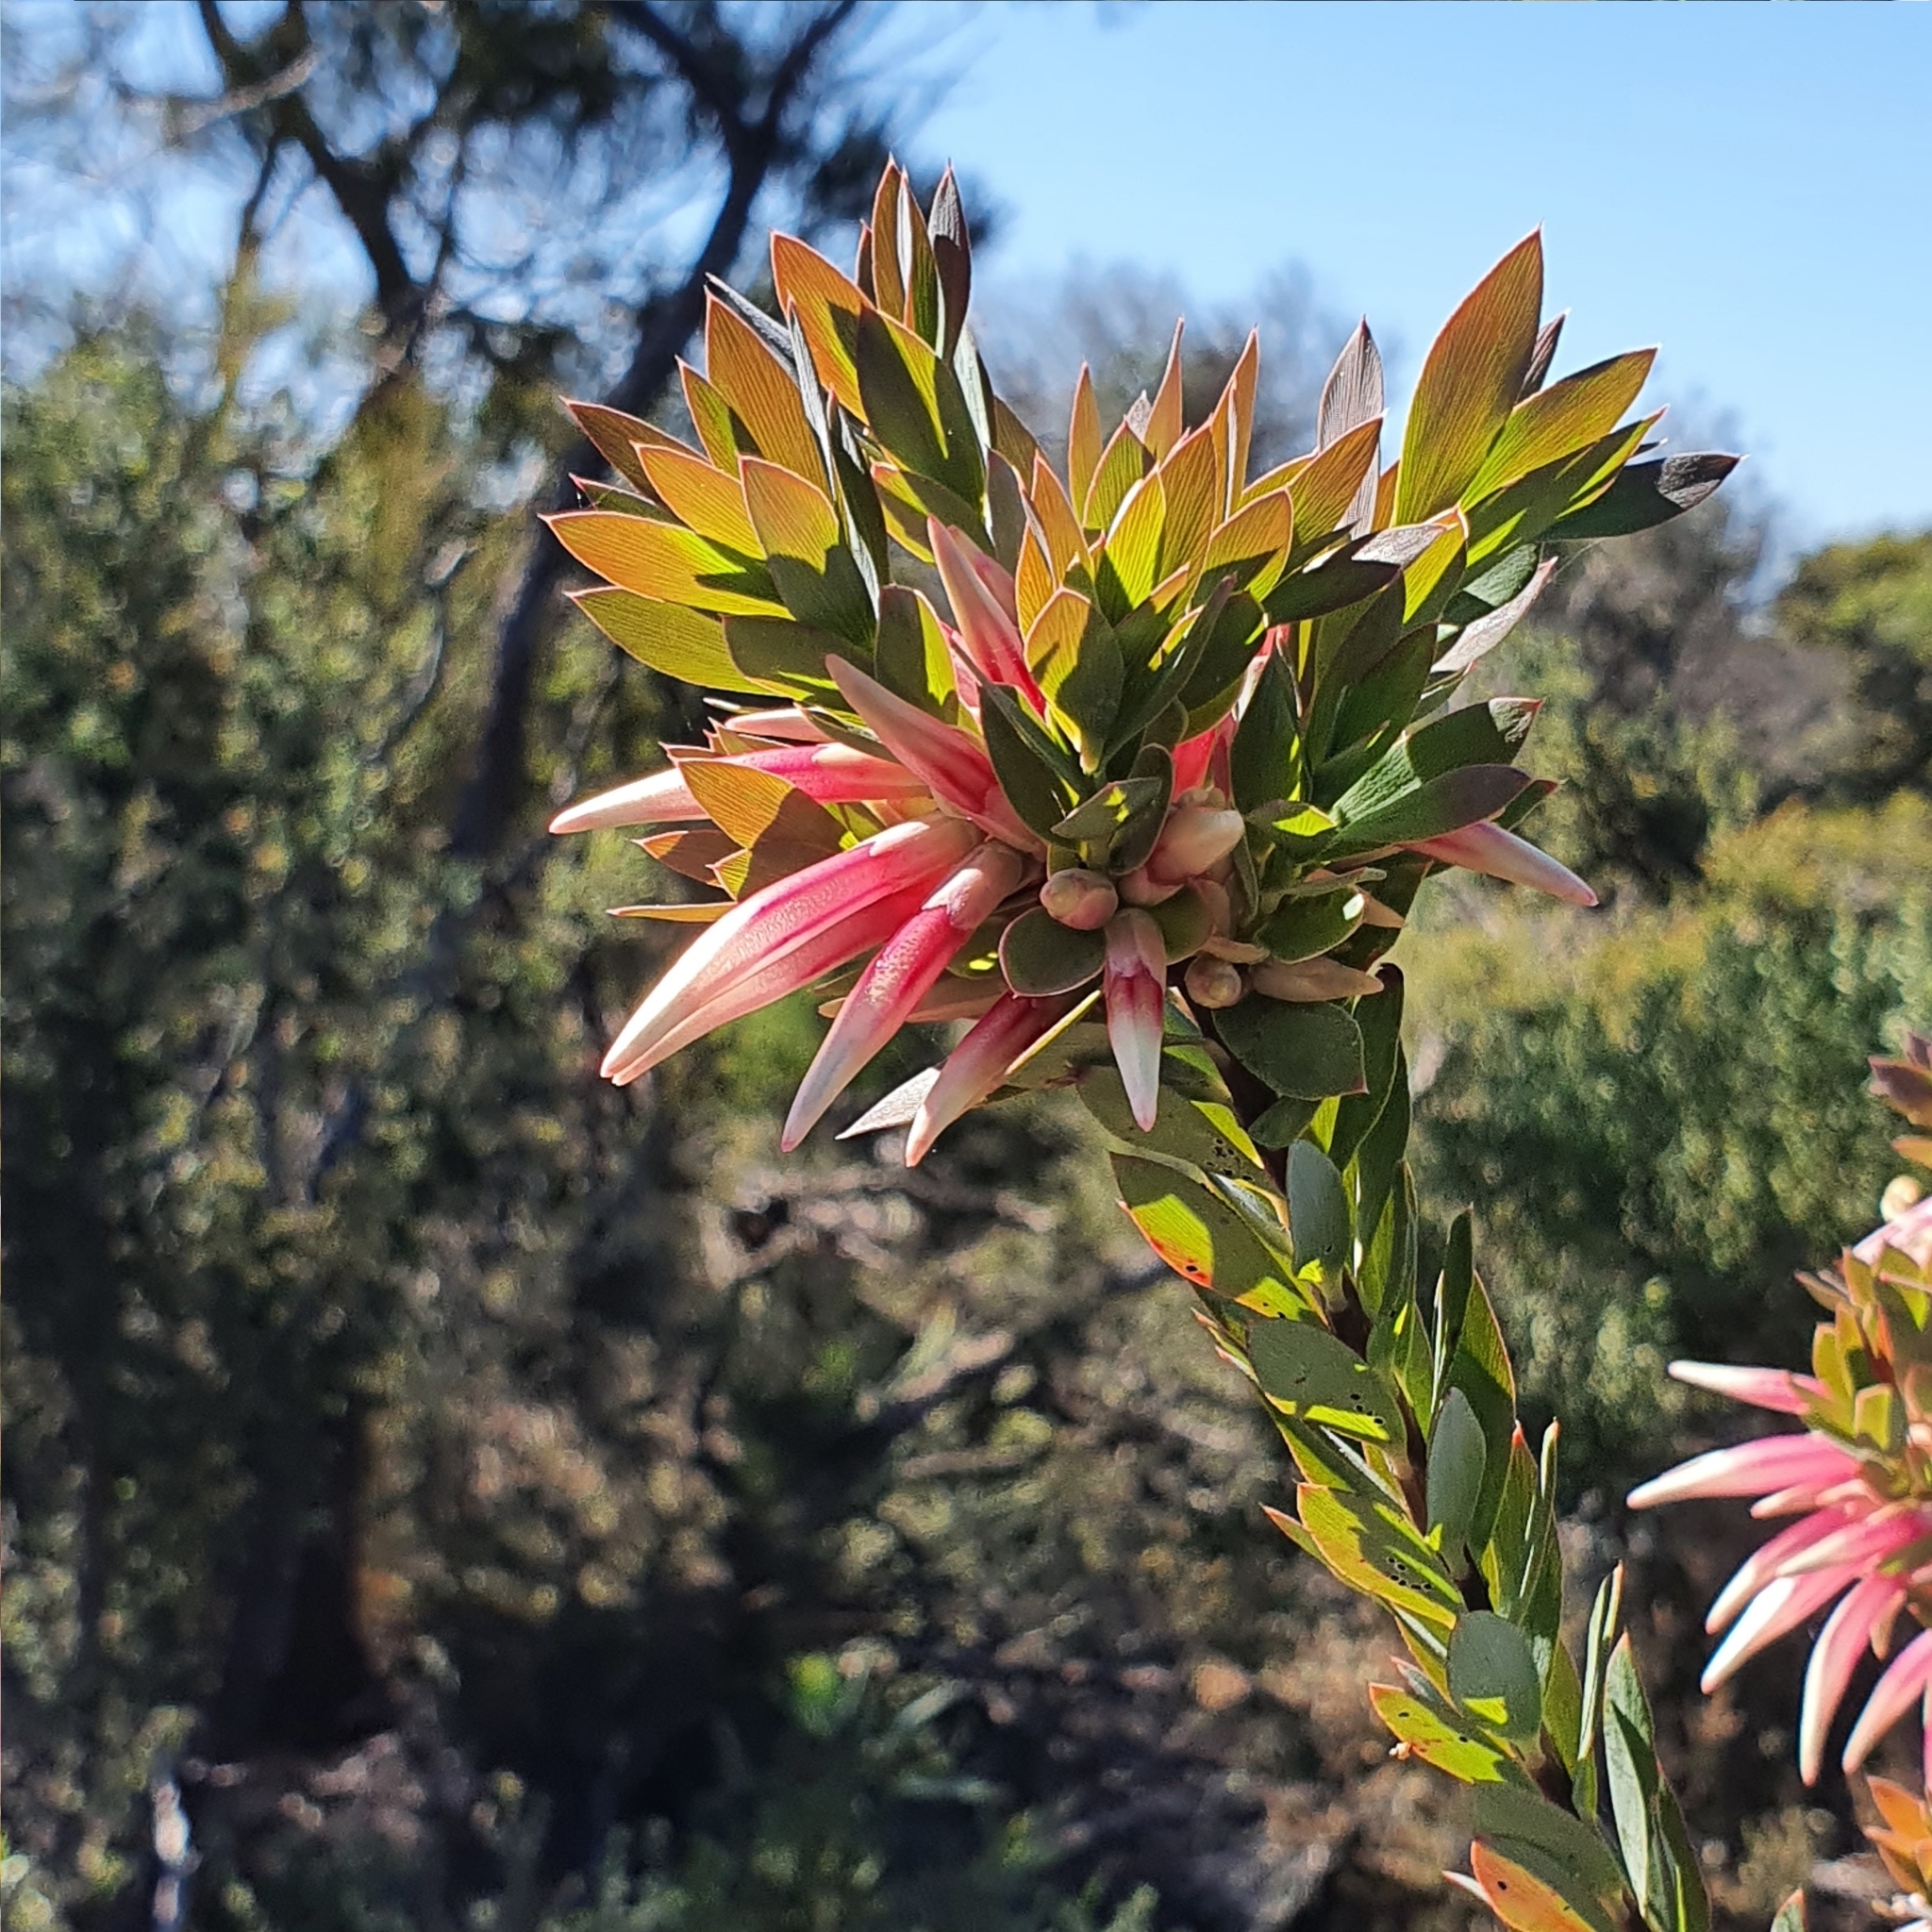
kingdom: Plantae
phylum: Tracheophyta
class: Magnoliopsida
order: Ericales
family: Ericaceae
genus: Styphelia
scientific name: Styphelia triflora
